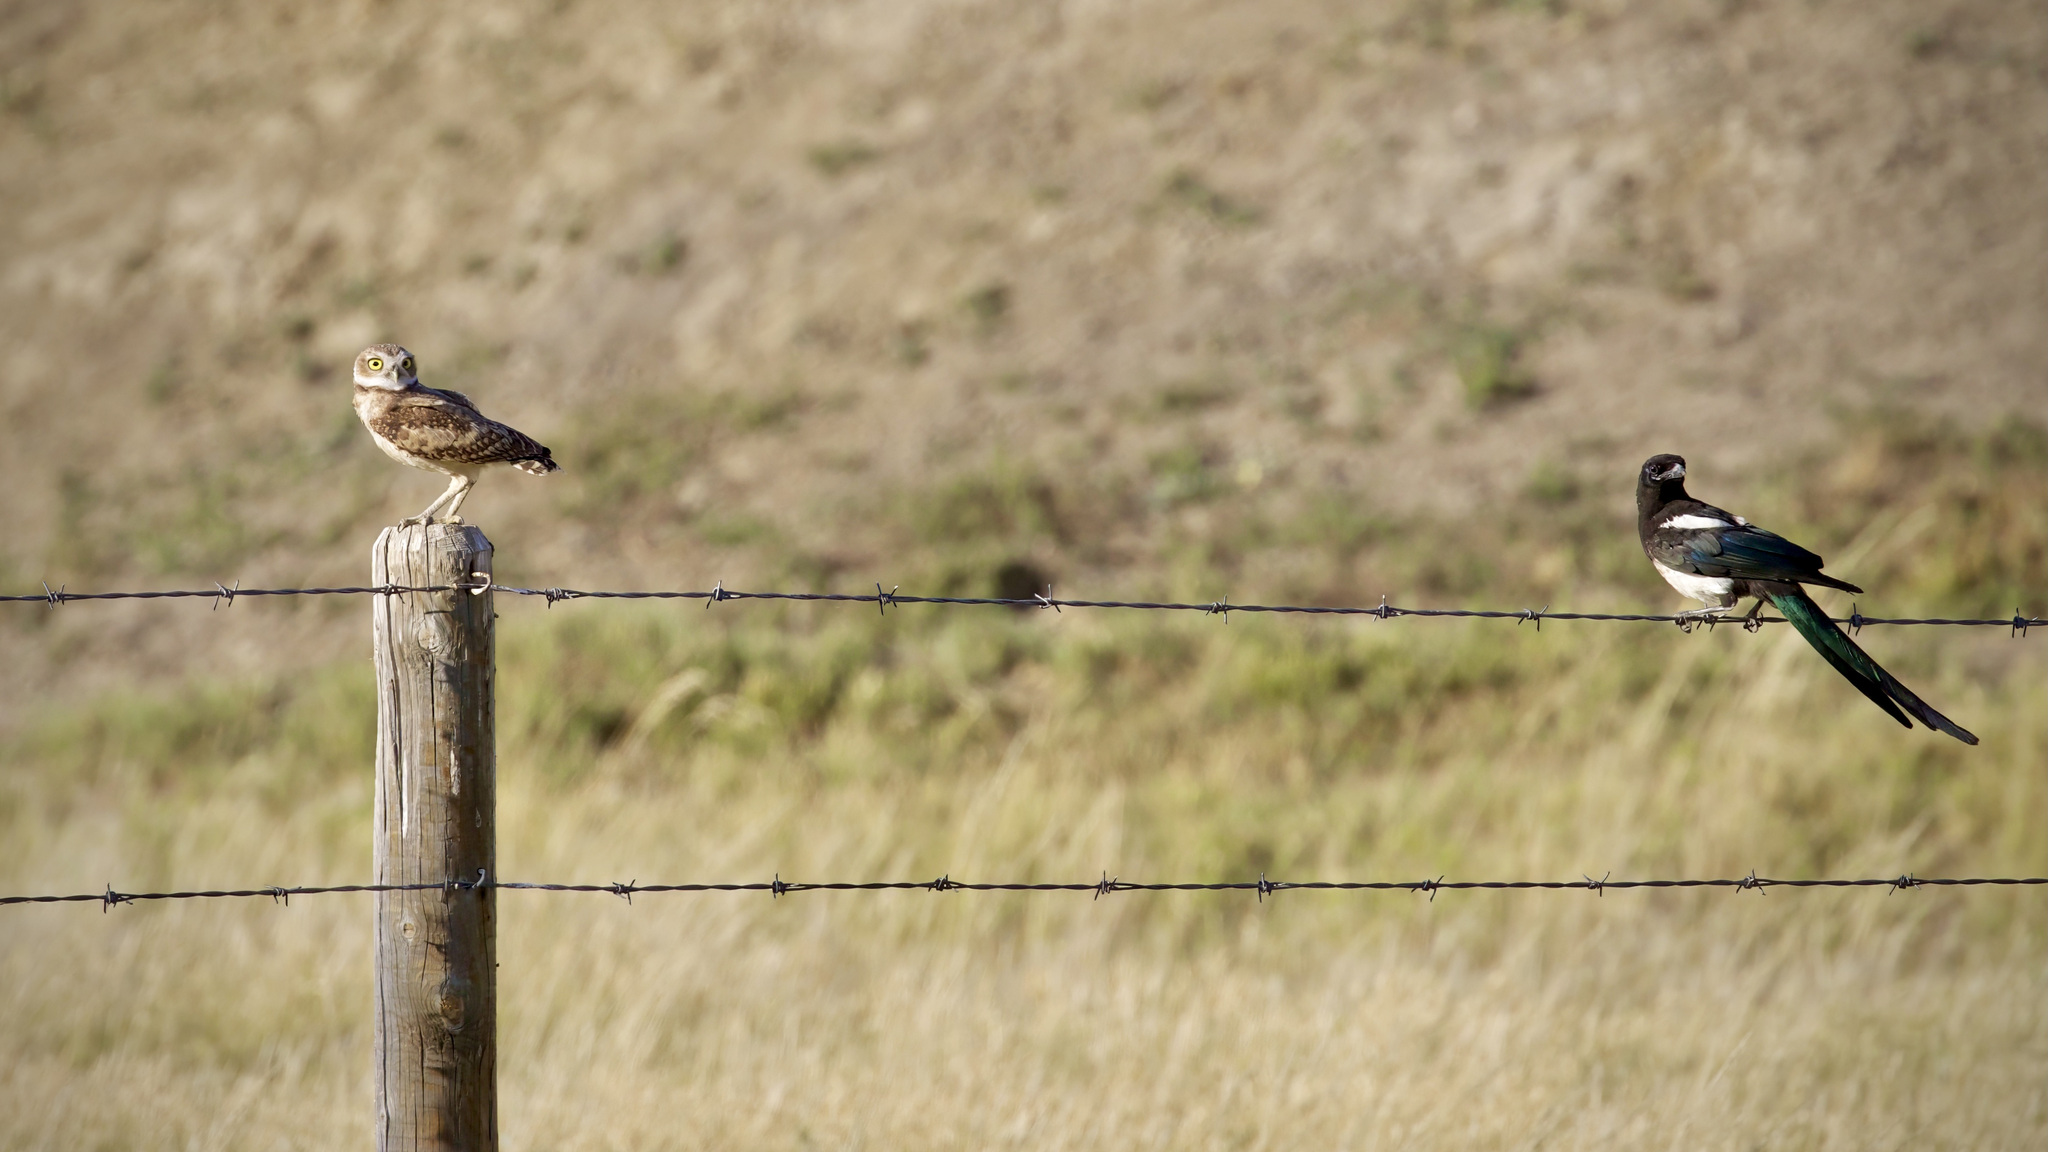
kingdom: Animalia
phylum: Chordata
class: Aves
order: Strigiformes
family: Strigidae
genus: Athene
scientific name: Athene cunicularia
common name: Burrowing owl
